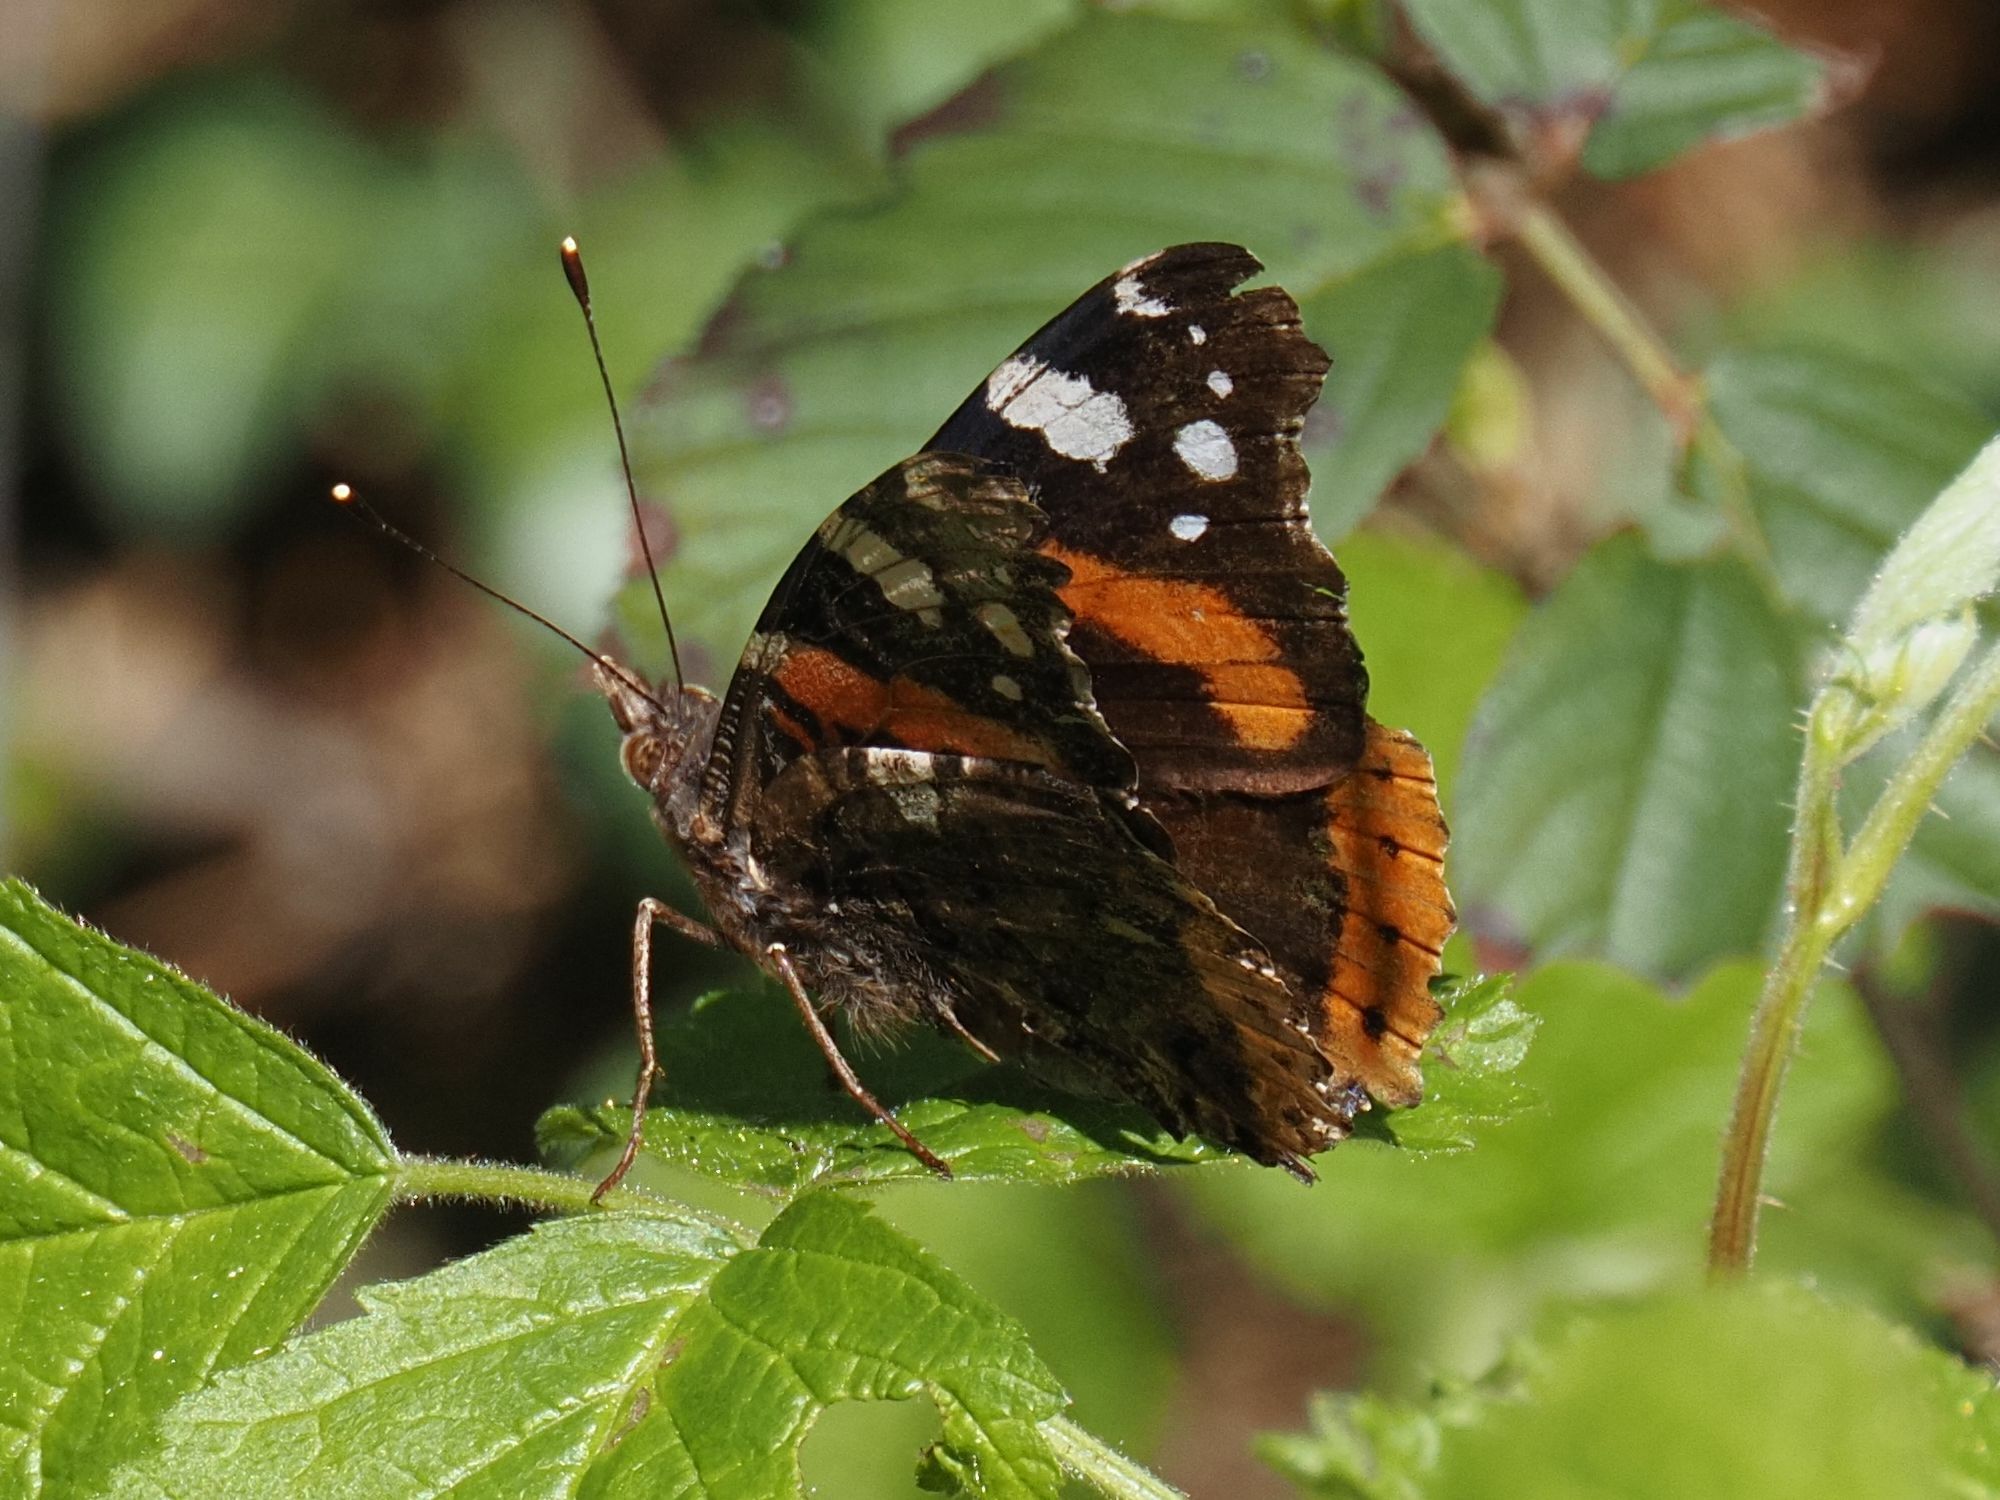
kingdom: Animalia
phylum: Arthropoda
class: Insecta
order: Lepidoptera
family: Nymphalidae
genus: Vanessa
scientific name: Vanessa atalanta
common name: Red admiral
